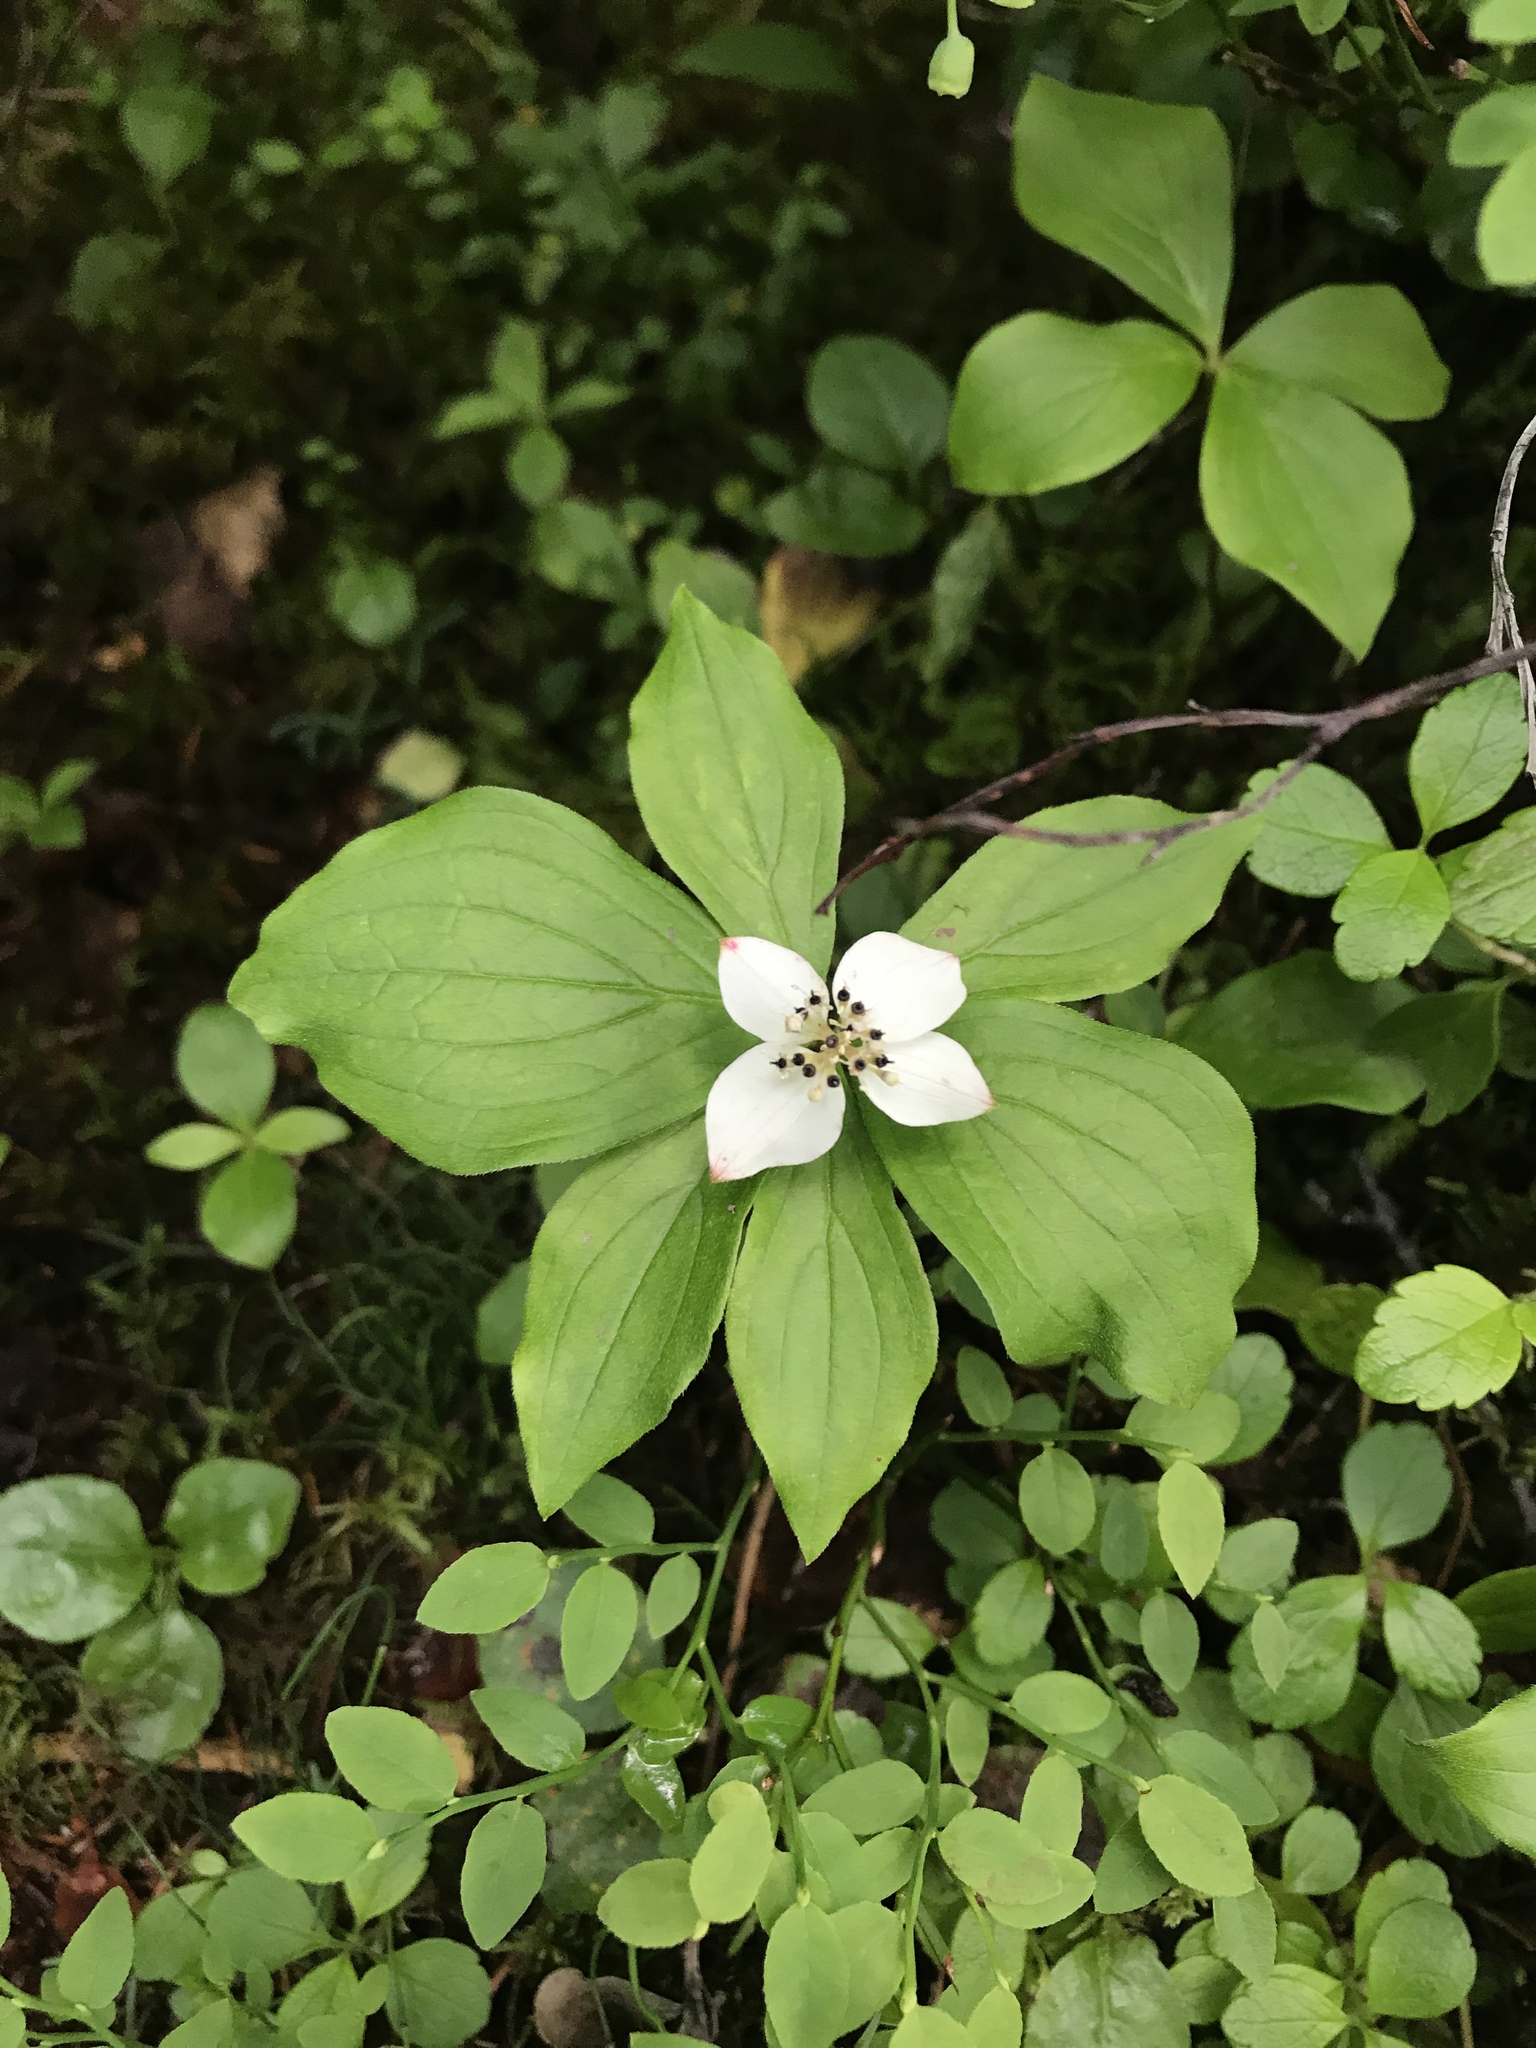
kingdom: Plantae
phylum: Tracheophyta
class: Magnoliopsida
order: Cornales
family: Cornaceae
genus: Cornus
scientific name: Cornus canadensis
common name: Creeping dogwood
